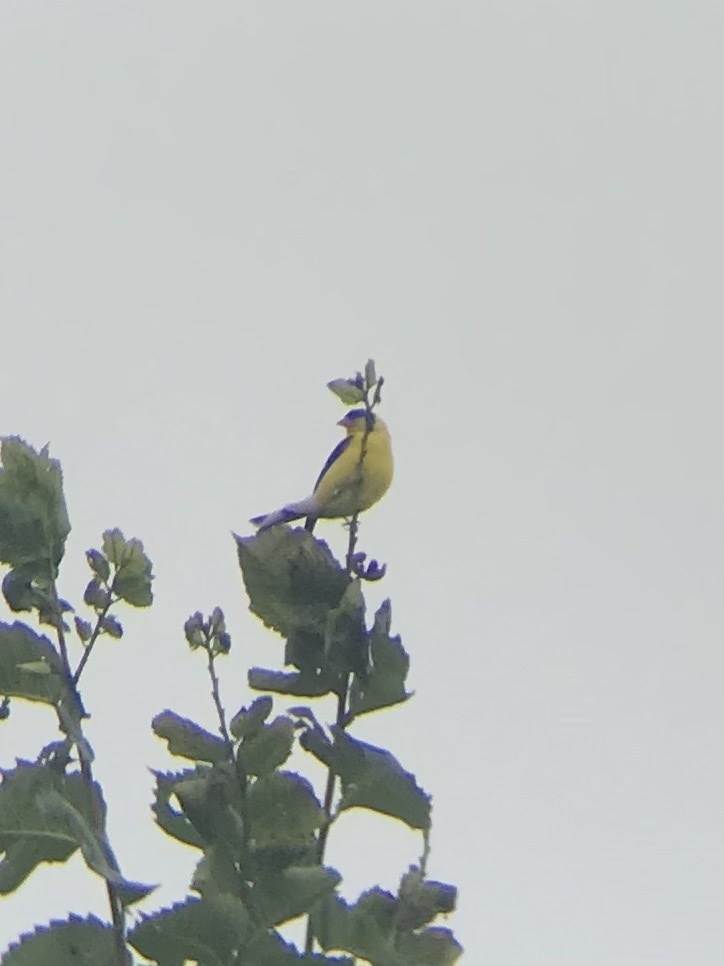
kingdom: Animalia
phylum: Chordata
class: Aves
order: Passeriformes
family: Fringillidae
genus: Spinus
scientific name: Spinus tristis
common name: American goldfinch
